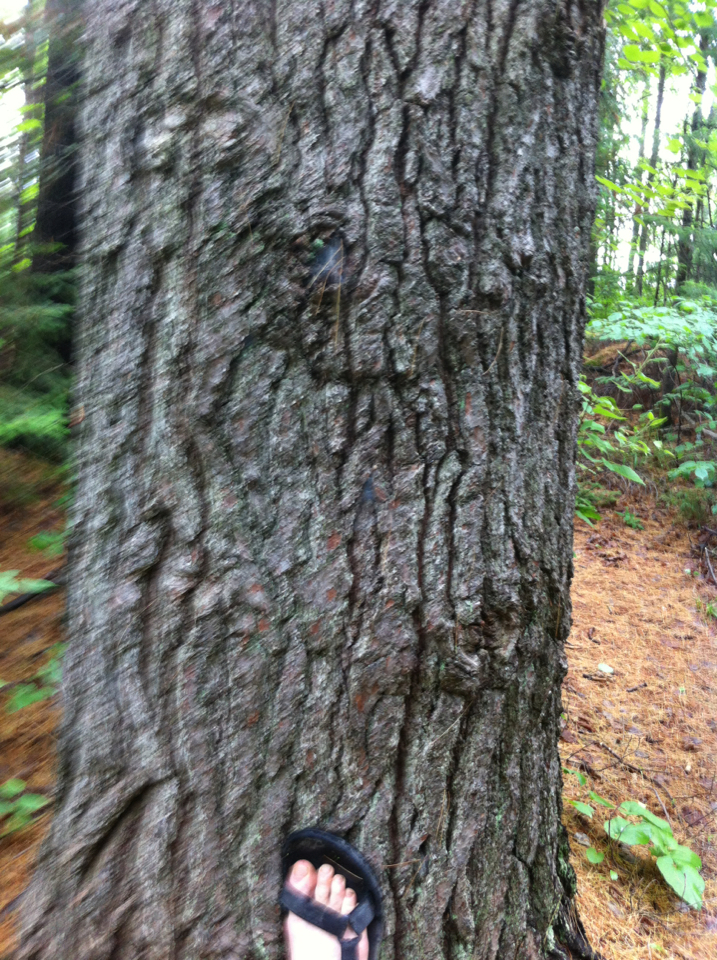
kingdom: Plantae
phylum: Tracheophyta
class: Pinopsida
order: Pinales
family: Pinaceae
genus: Pinus
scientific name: Pinus strobus
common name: Weymouth pine
